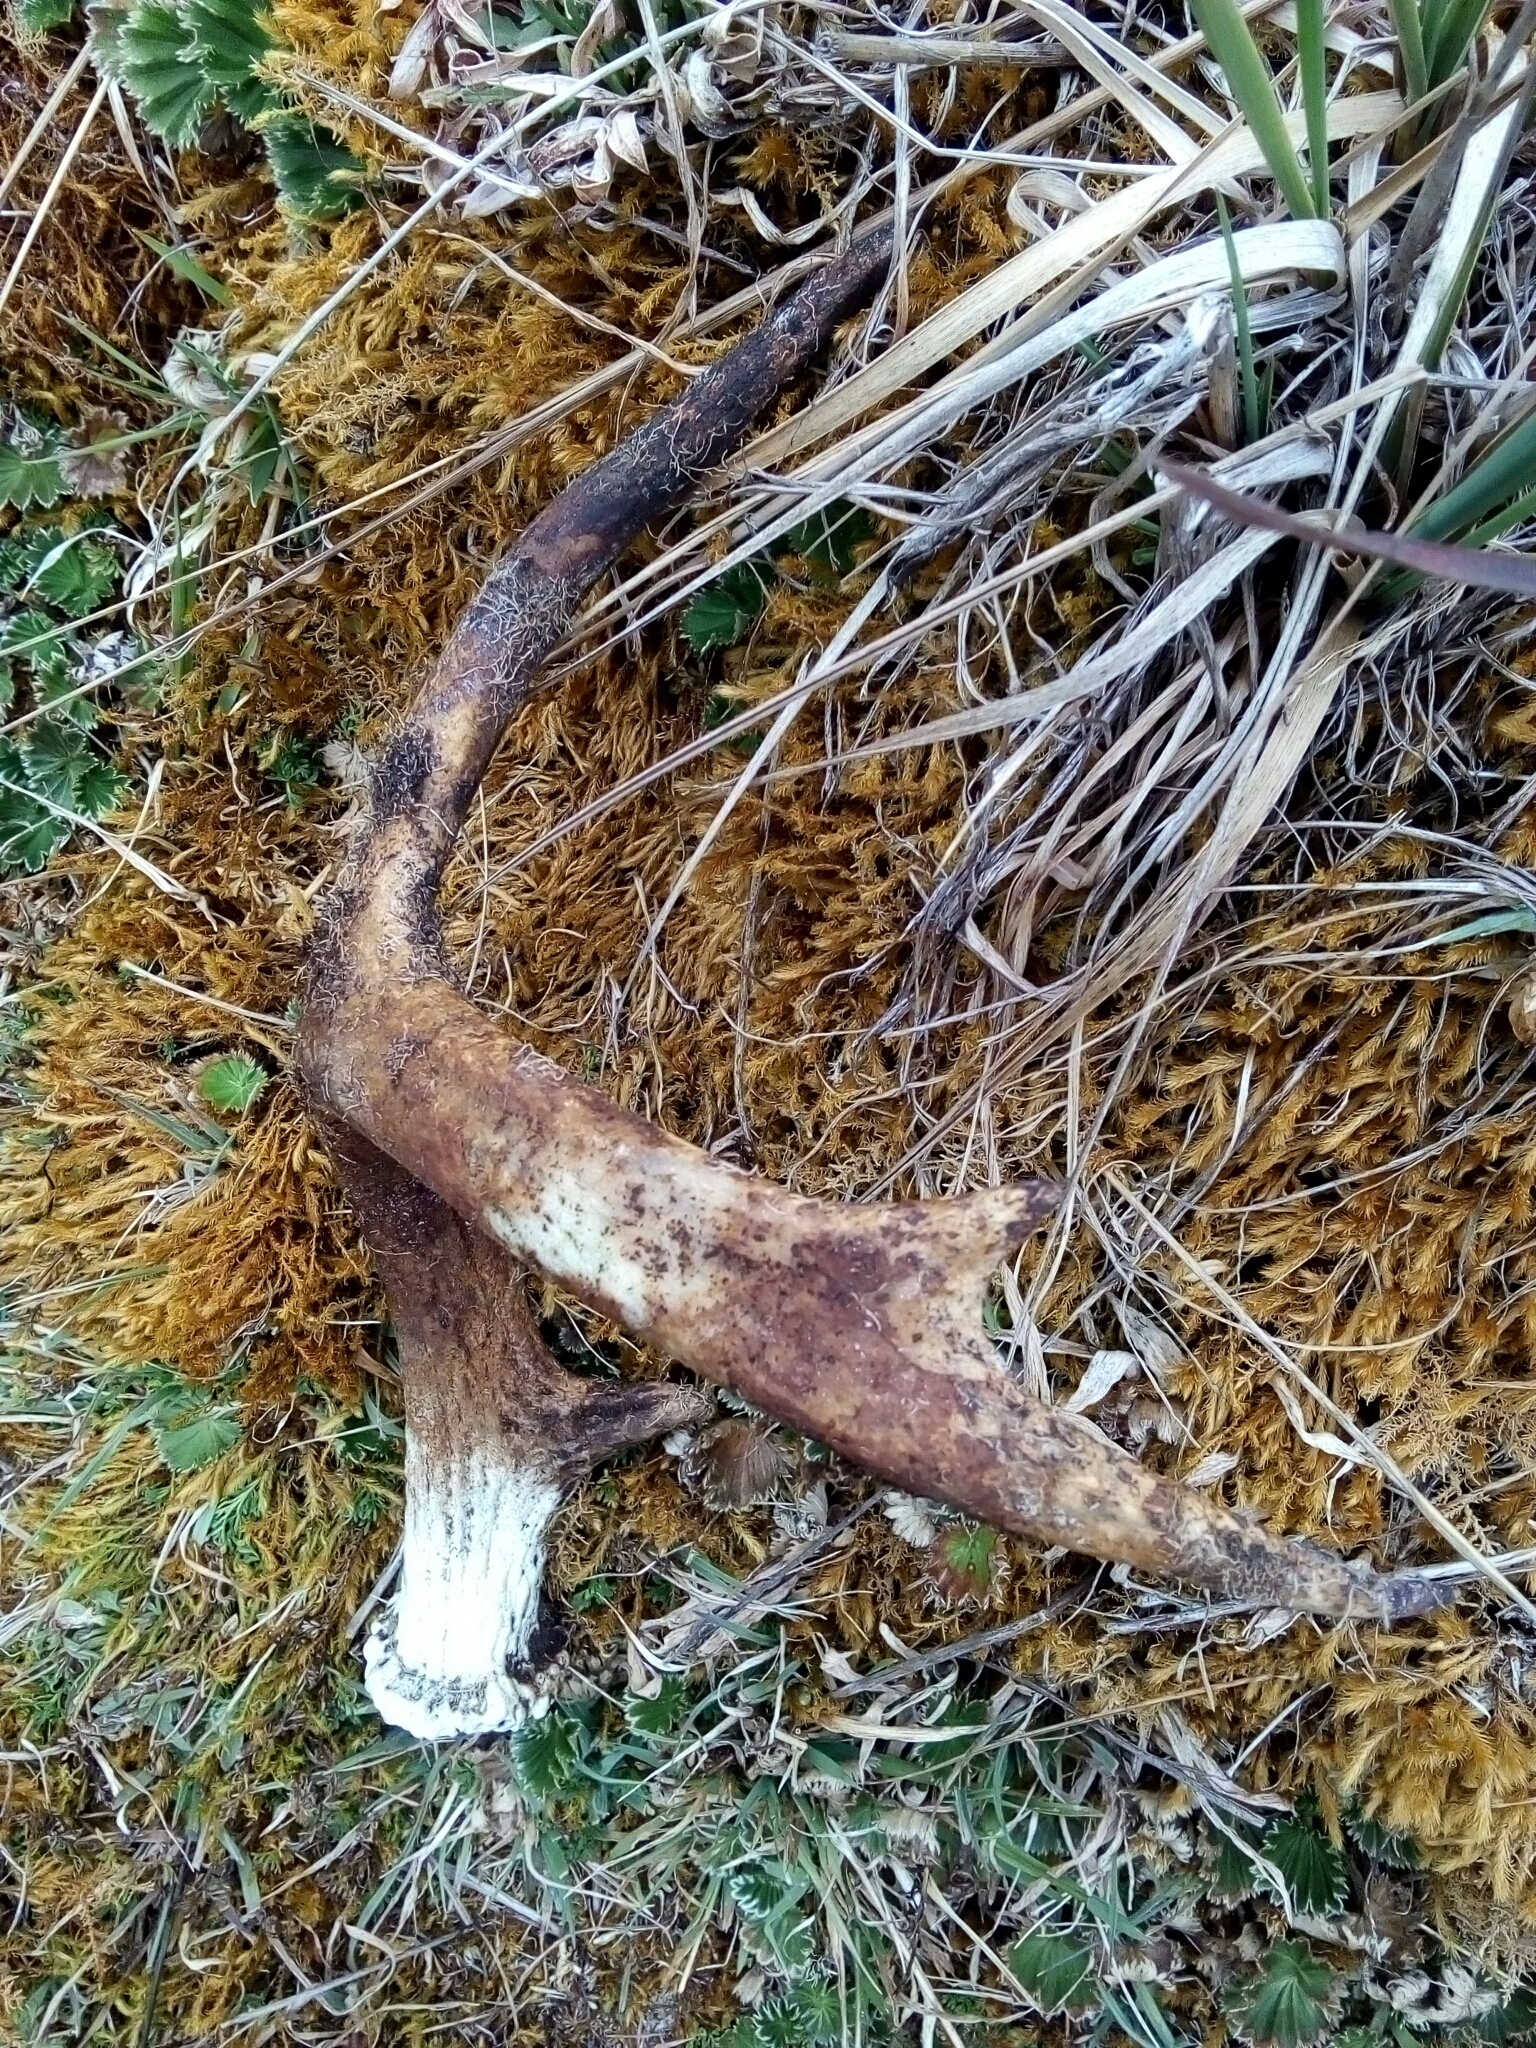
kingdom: Animalia
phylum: Chordata
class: Mammalia
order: Artiodactyla
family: Cervidae
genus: Odocoileus
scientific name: Odocoileus virginianus
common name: White-tailed deer
